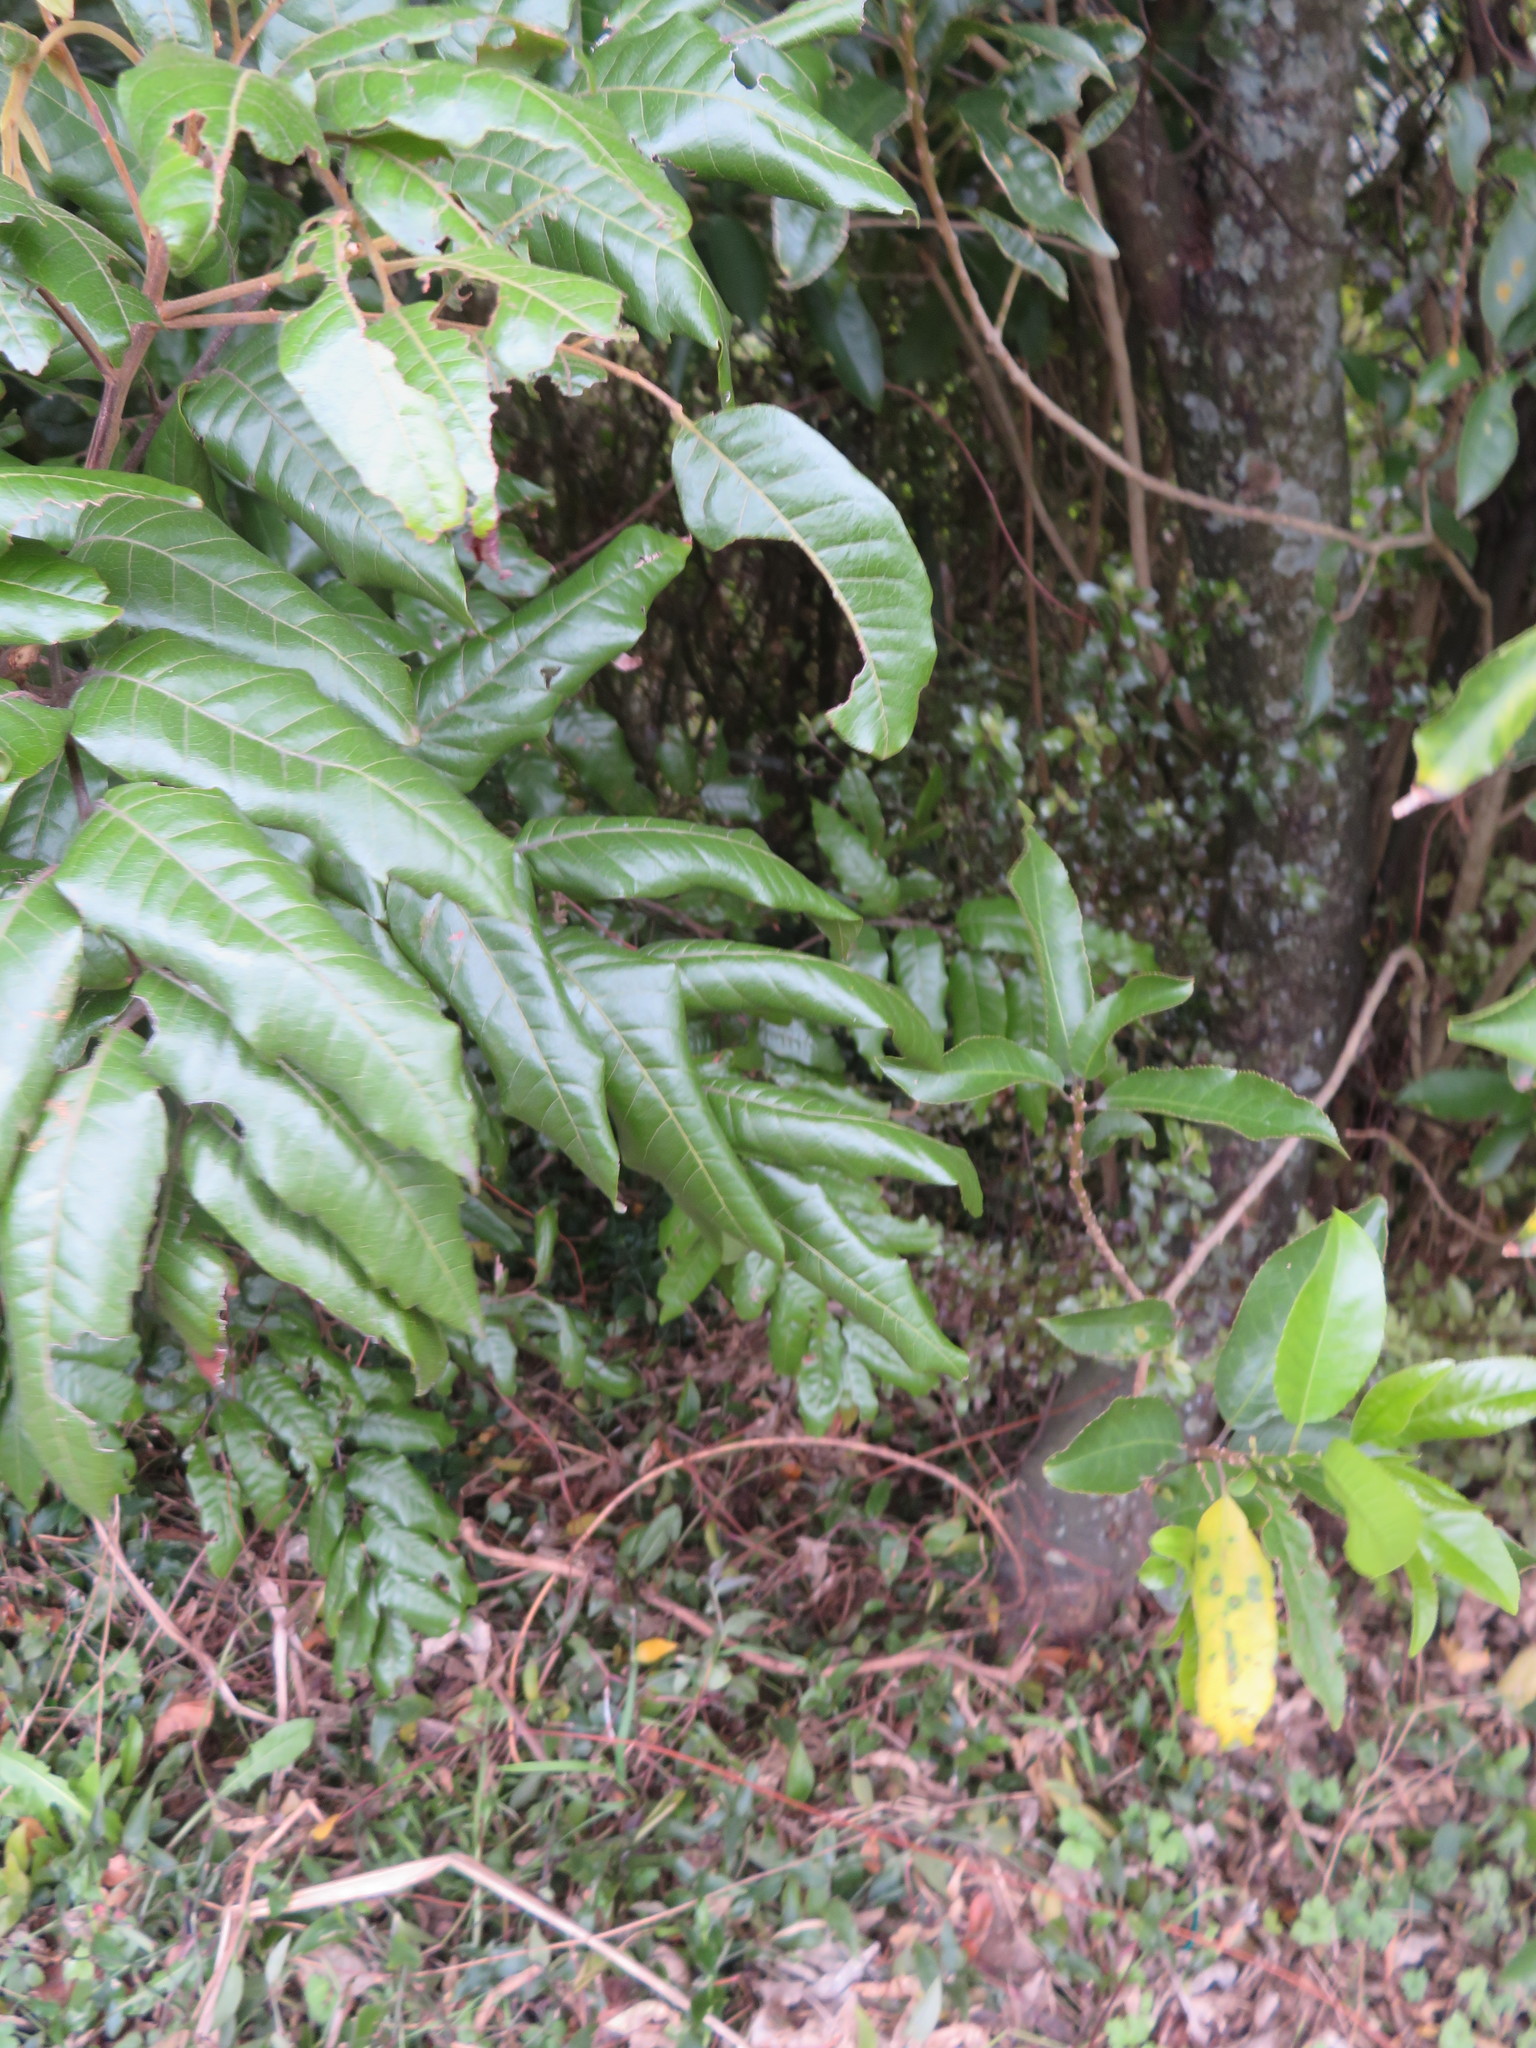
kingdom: Plantae
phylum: Tracheophyta
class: Magnoliopsida
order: Malpighiales
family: Violaceae
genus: Melicytus
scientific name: Melicytus ramiflorus
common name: Mahoe
